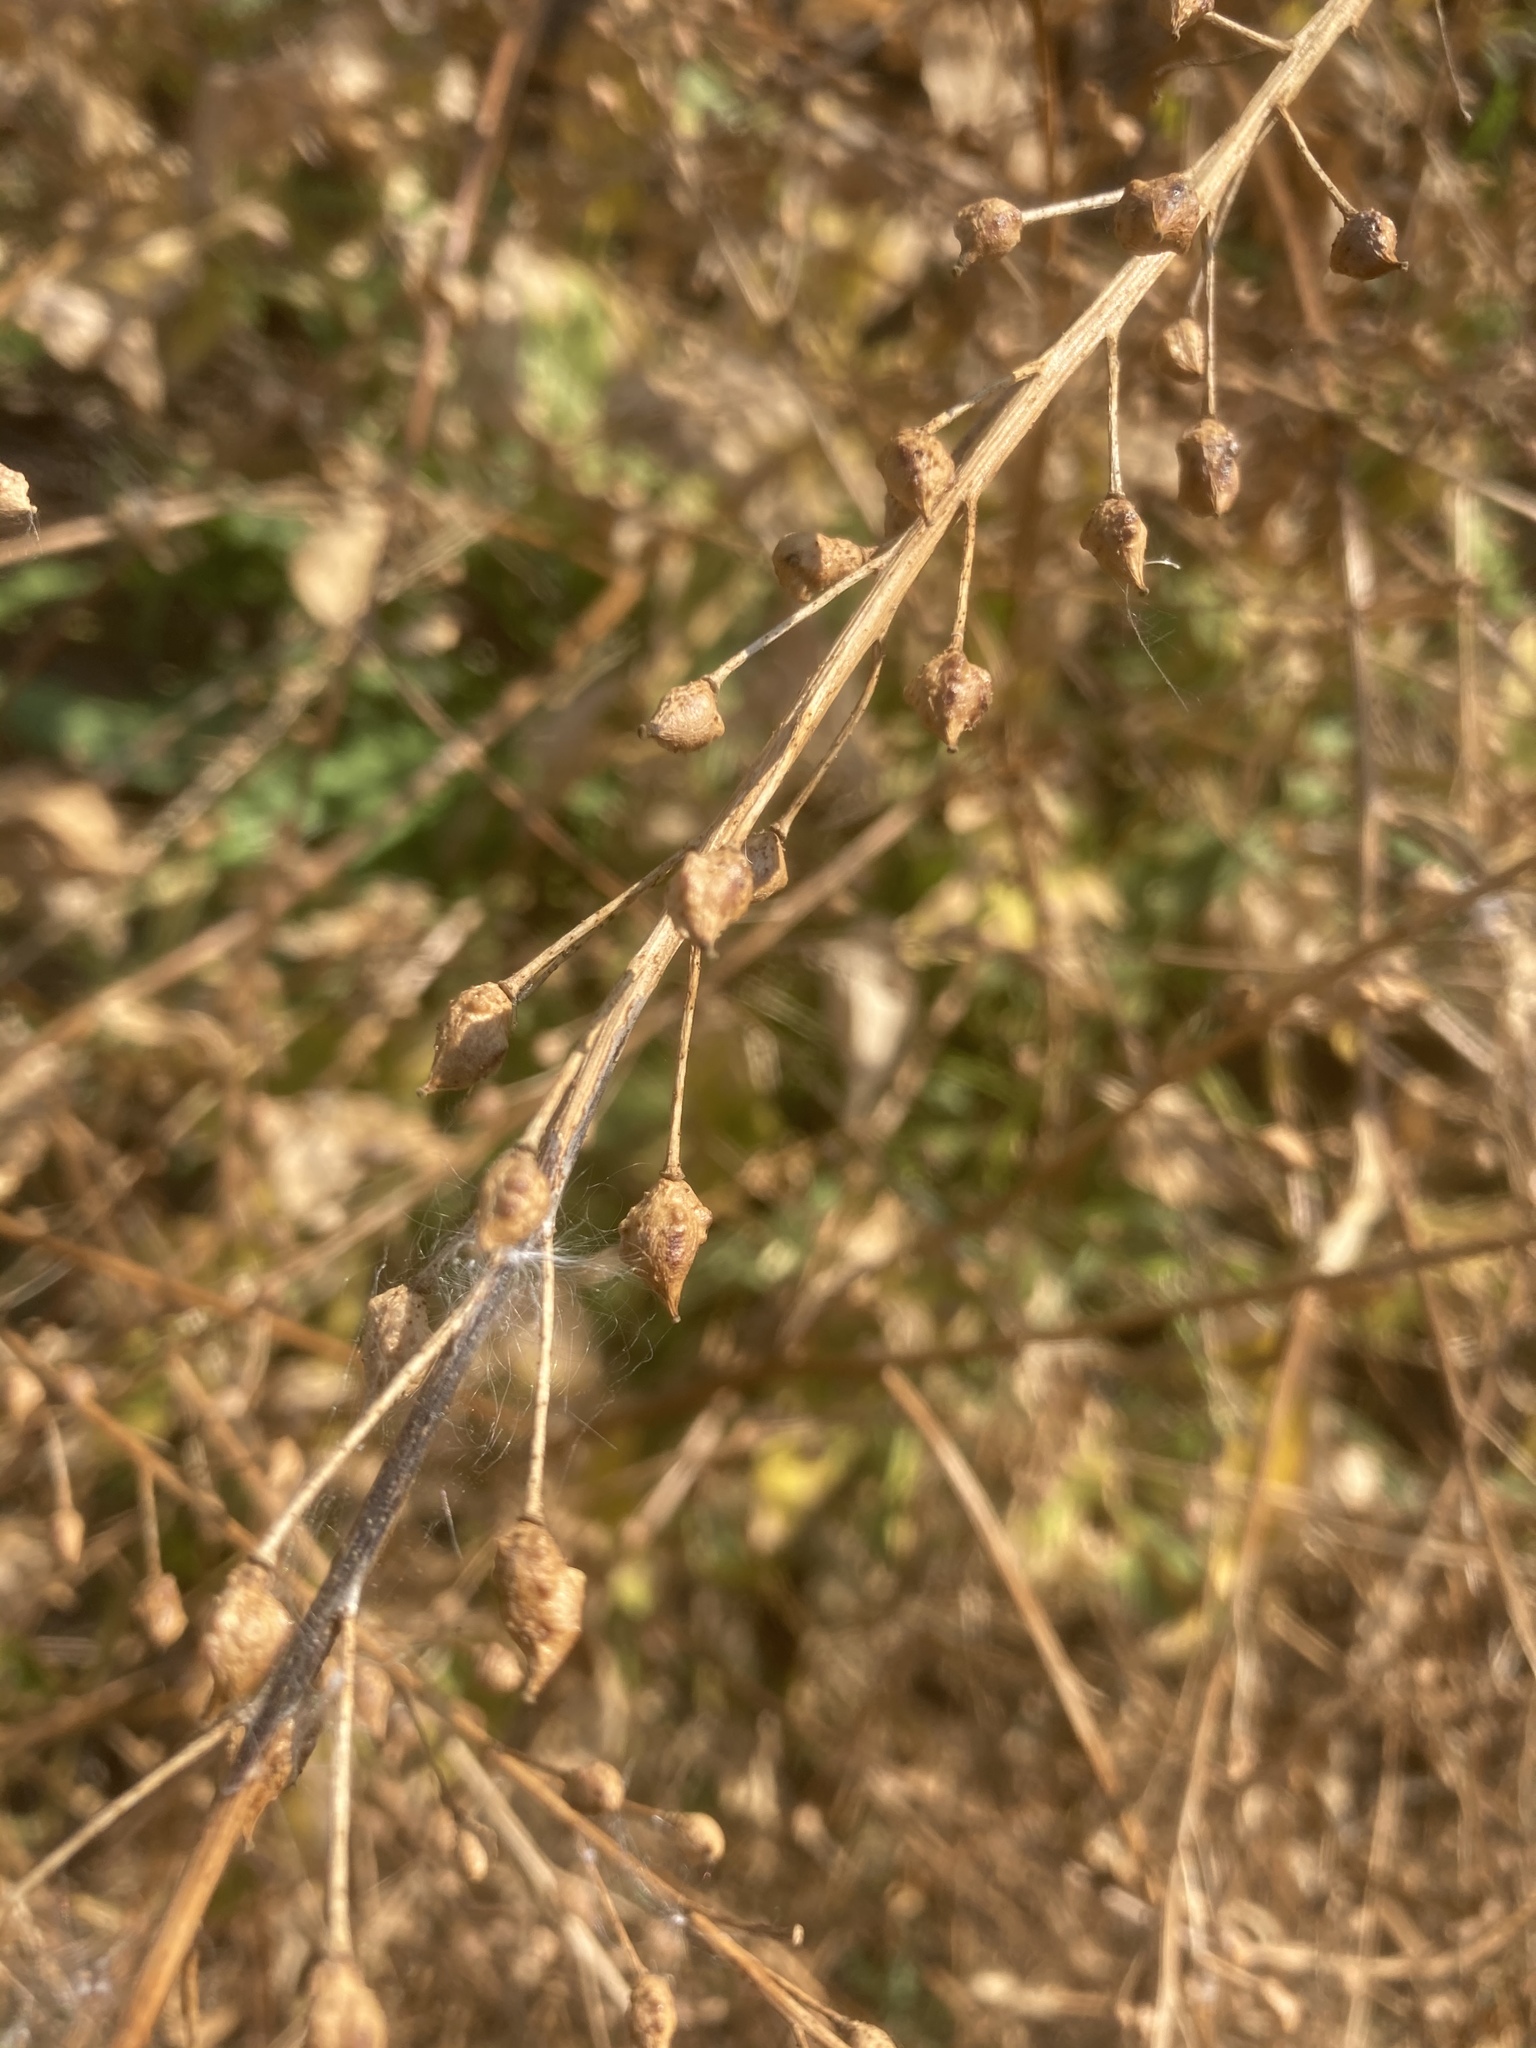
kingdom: Plantae
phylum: Tracheophyta
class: Magnoliopsida
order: Brassicales
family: Brassicaceae
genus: Bunias
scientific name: Bunias orientalis
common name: Warty-cabbage
